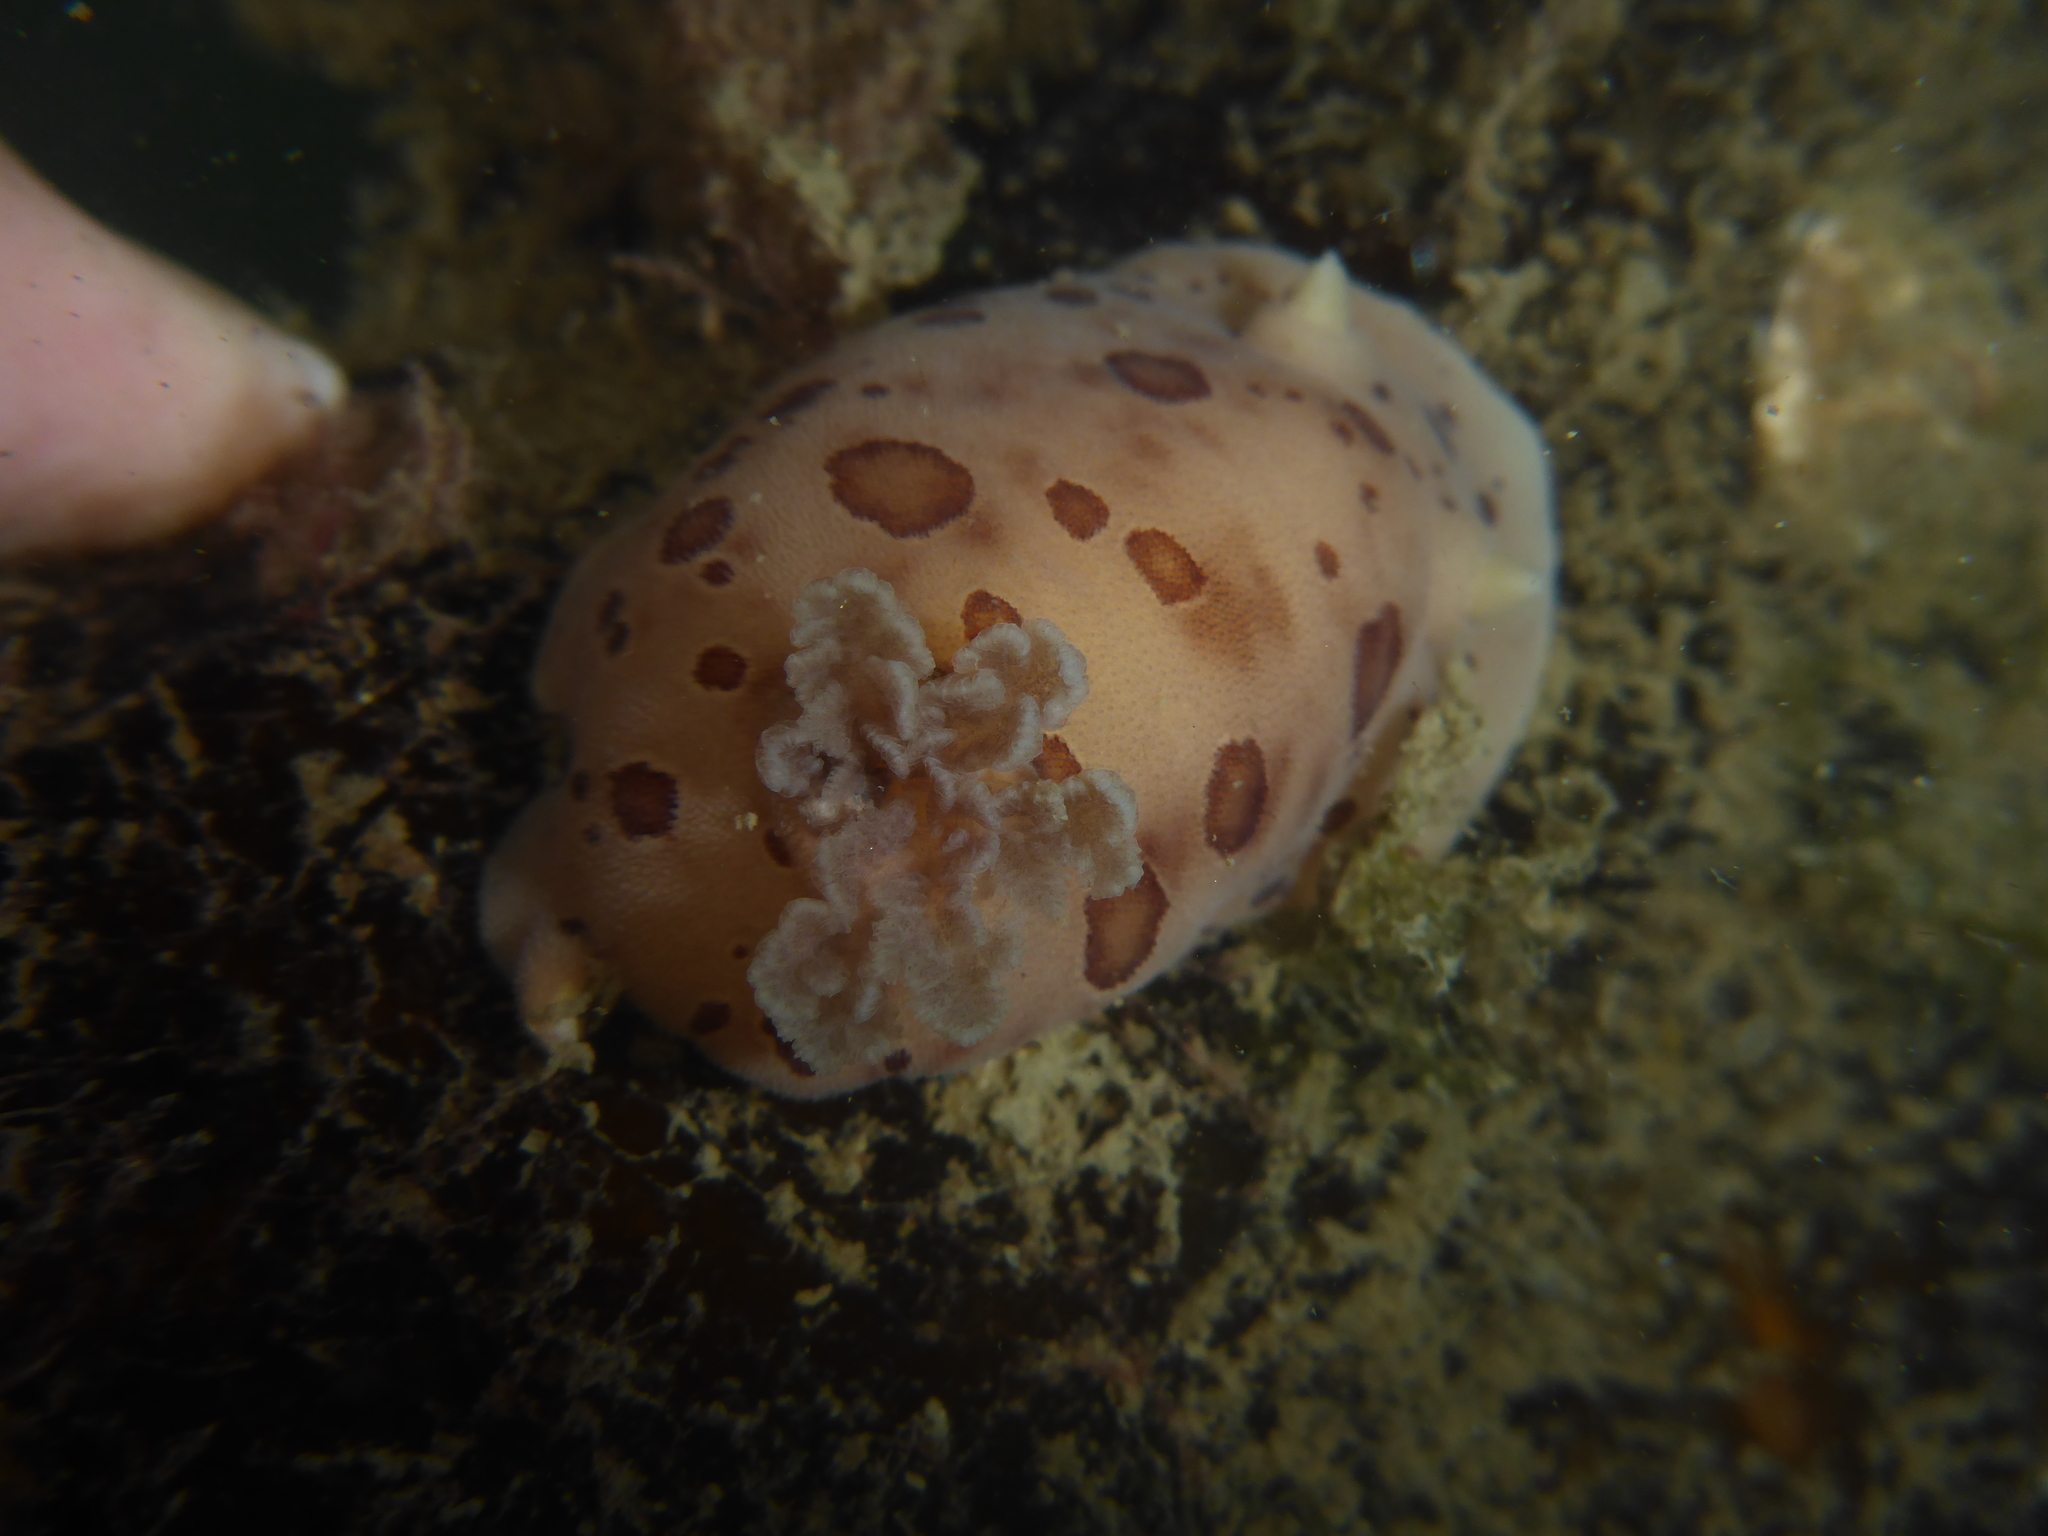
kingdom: Animalia
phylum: Mollusca
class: Gastropoda
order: Nudibranchia
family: Discodorididae
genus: Diaulula
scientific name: Diaulula odonoghuei
